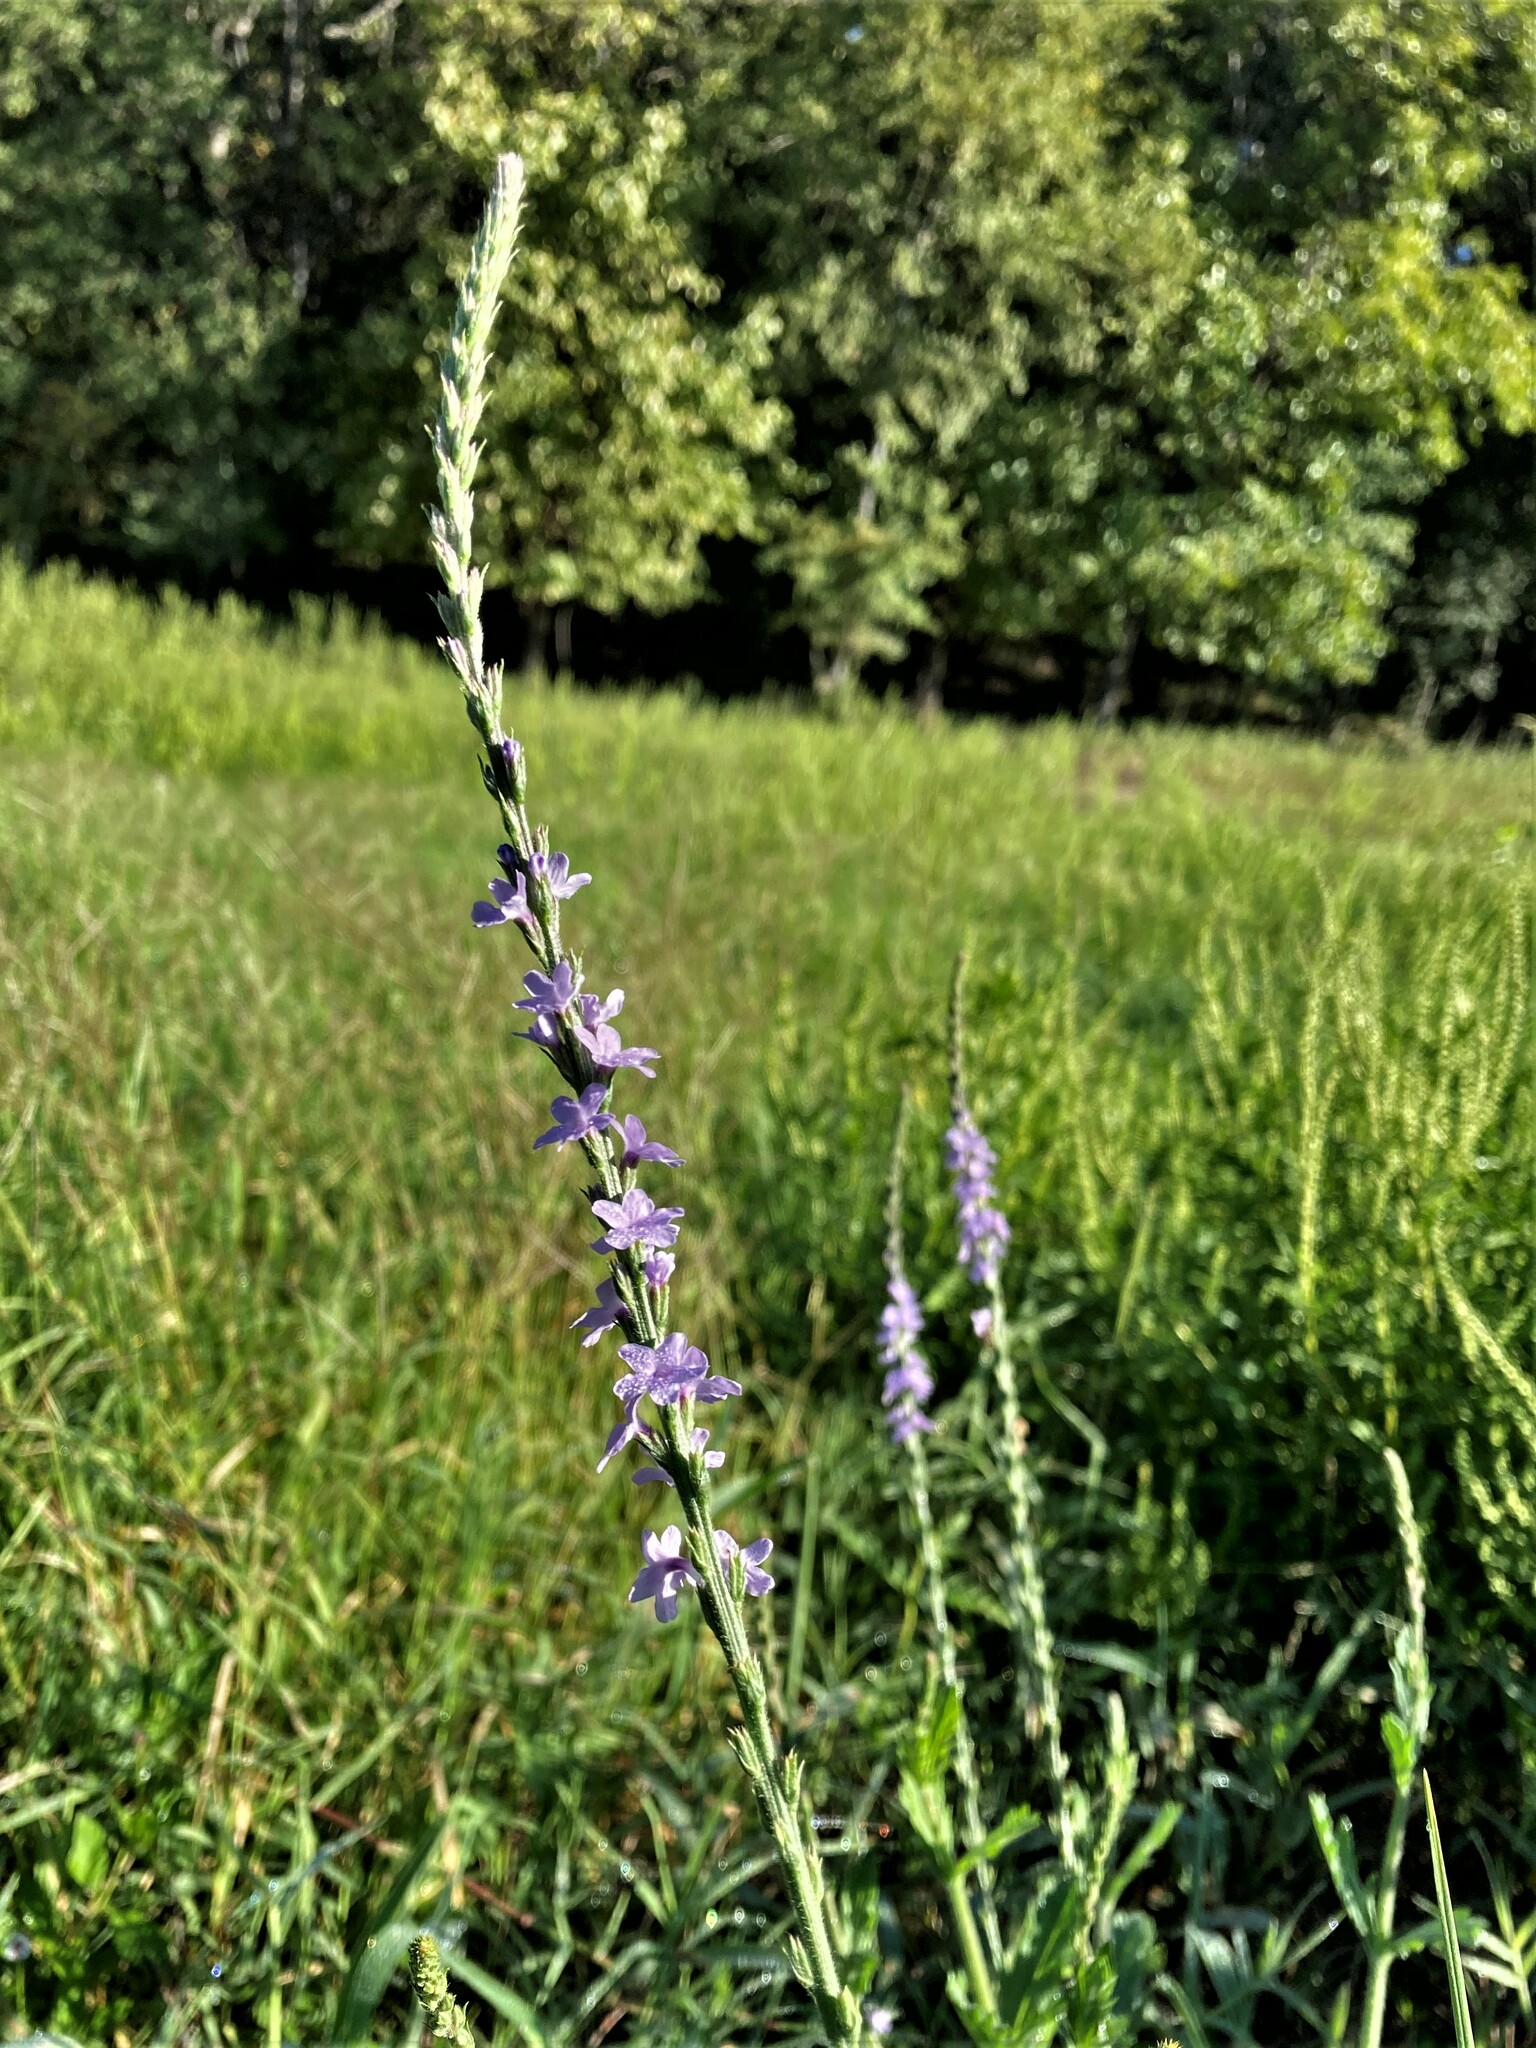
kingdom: Plantae
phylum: Tracheophyta
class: Magnoliopsida
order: Lamiales
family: Verbenaceae
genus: Verbena
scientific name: Verbena xutha
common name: Gulf vervain
